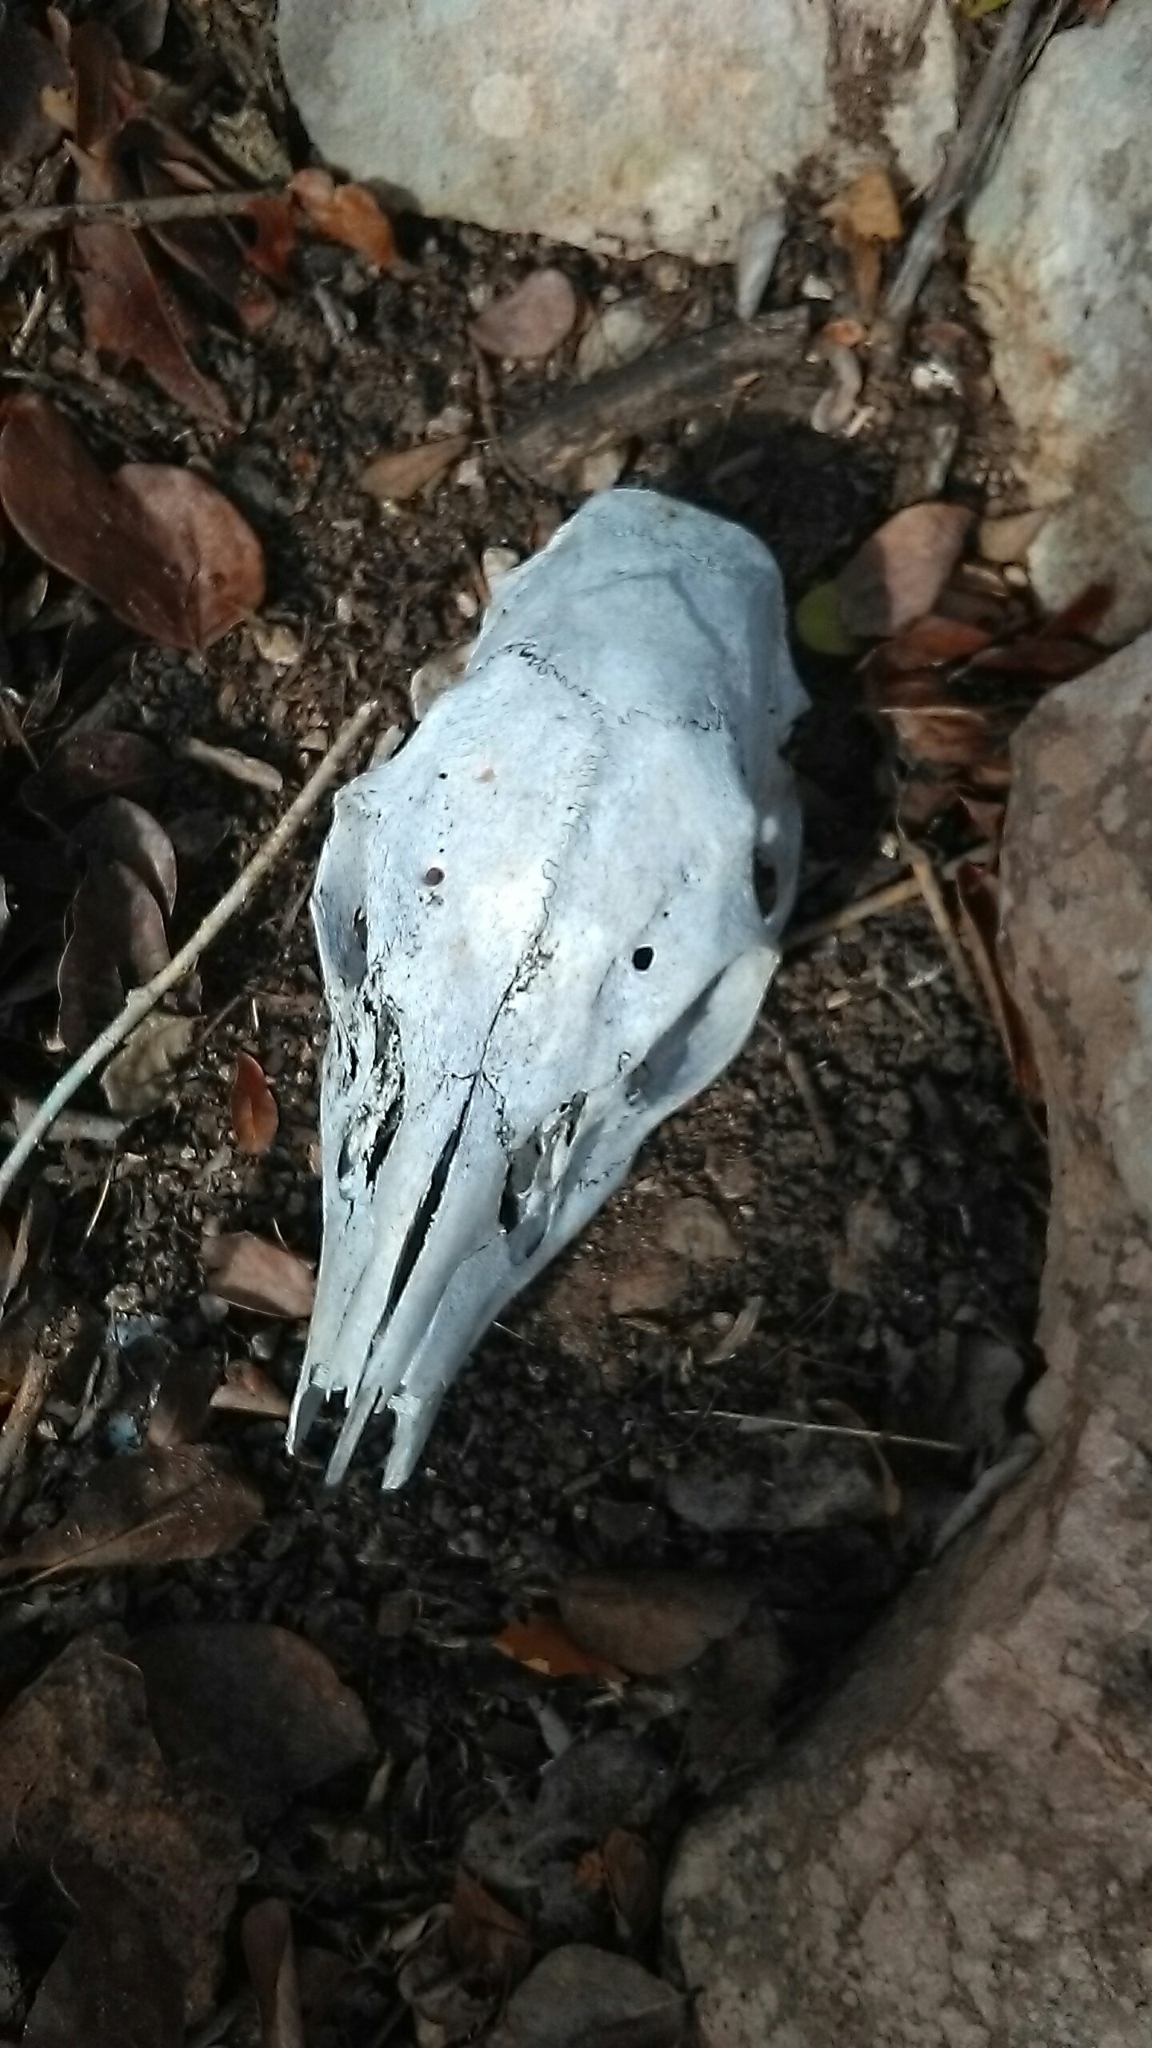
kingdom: Animalia
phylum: Chordata
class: Mammalia
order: Artiodactyla
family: Cervidae
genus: Odocoileus
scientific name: Odocoileus virginianus
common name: White-tailed deer
